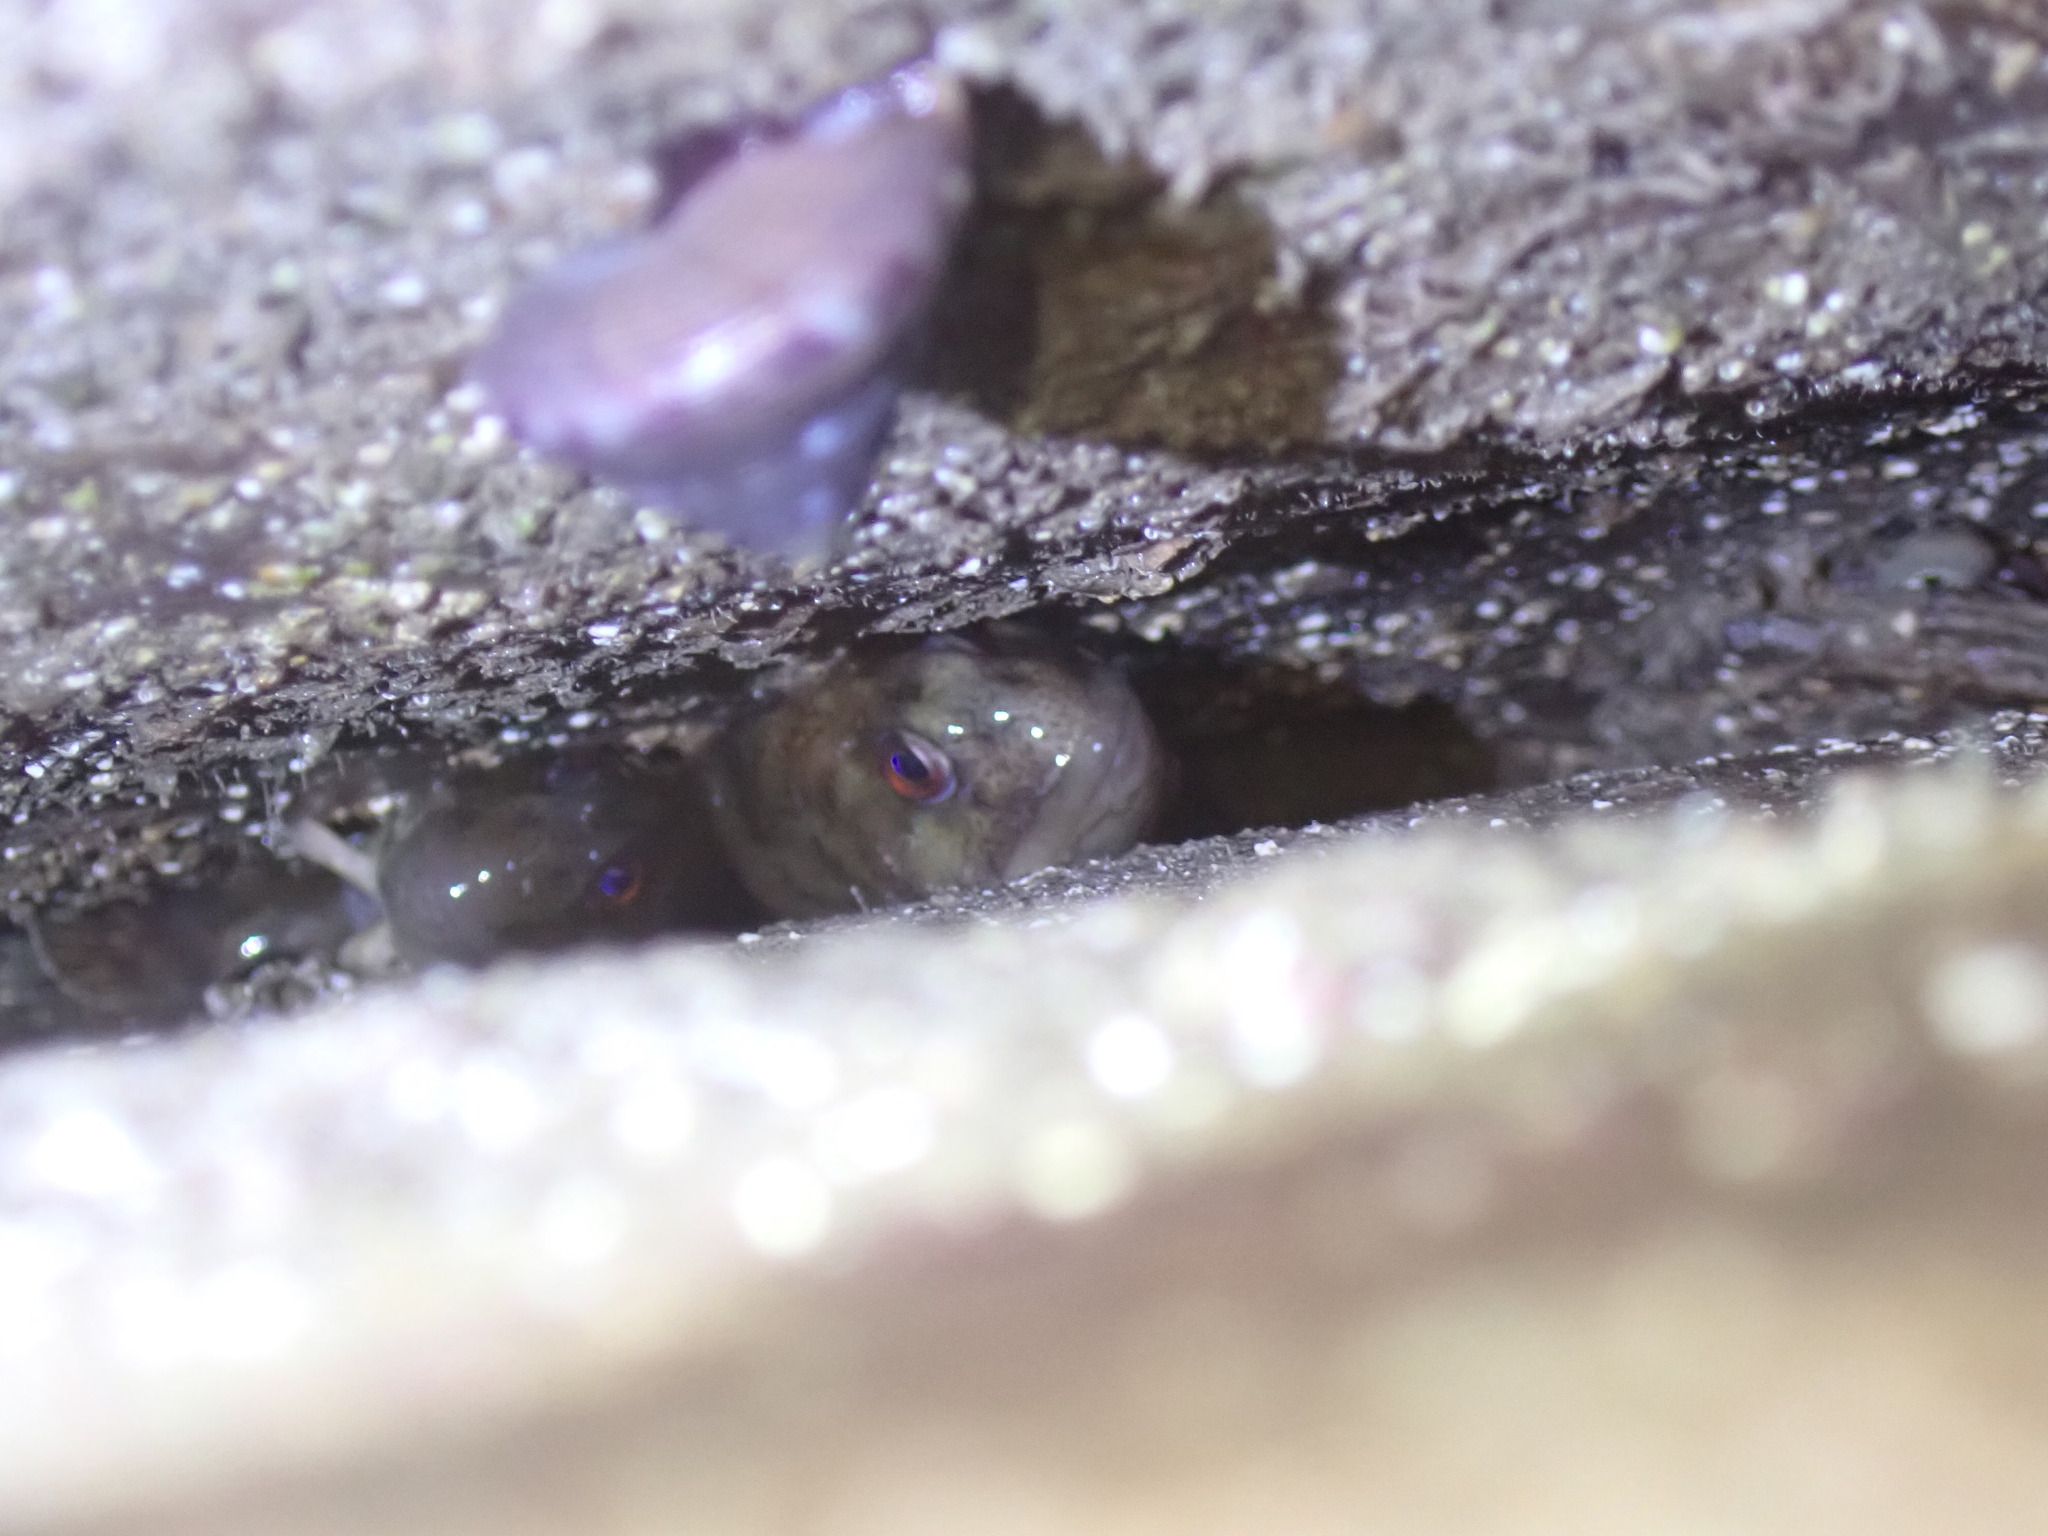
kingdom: Animalia
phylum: Chordata
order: Perciformes
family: Blenniidae
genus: Lipophrys
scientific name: Lipophrys pholis
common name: Shanny
